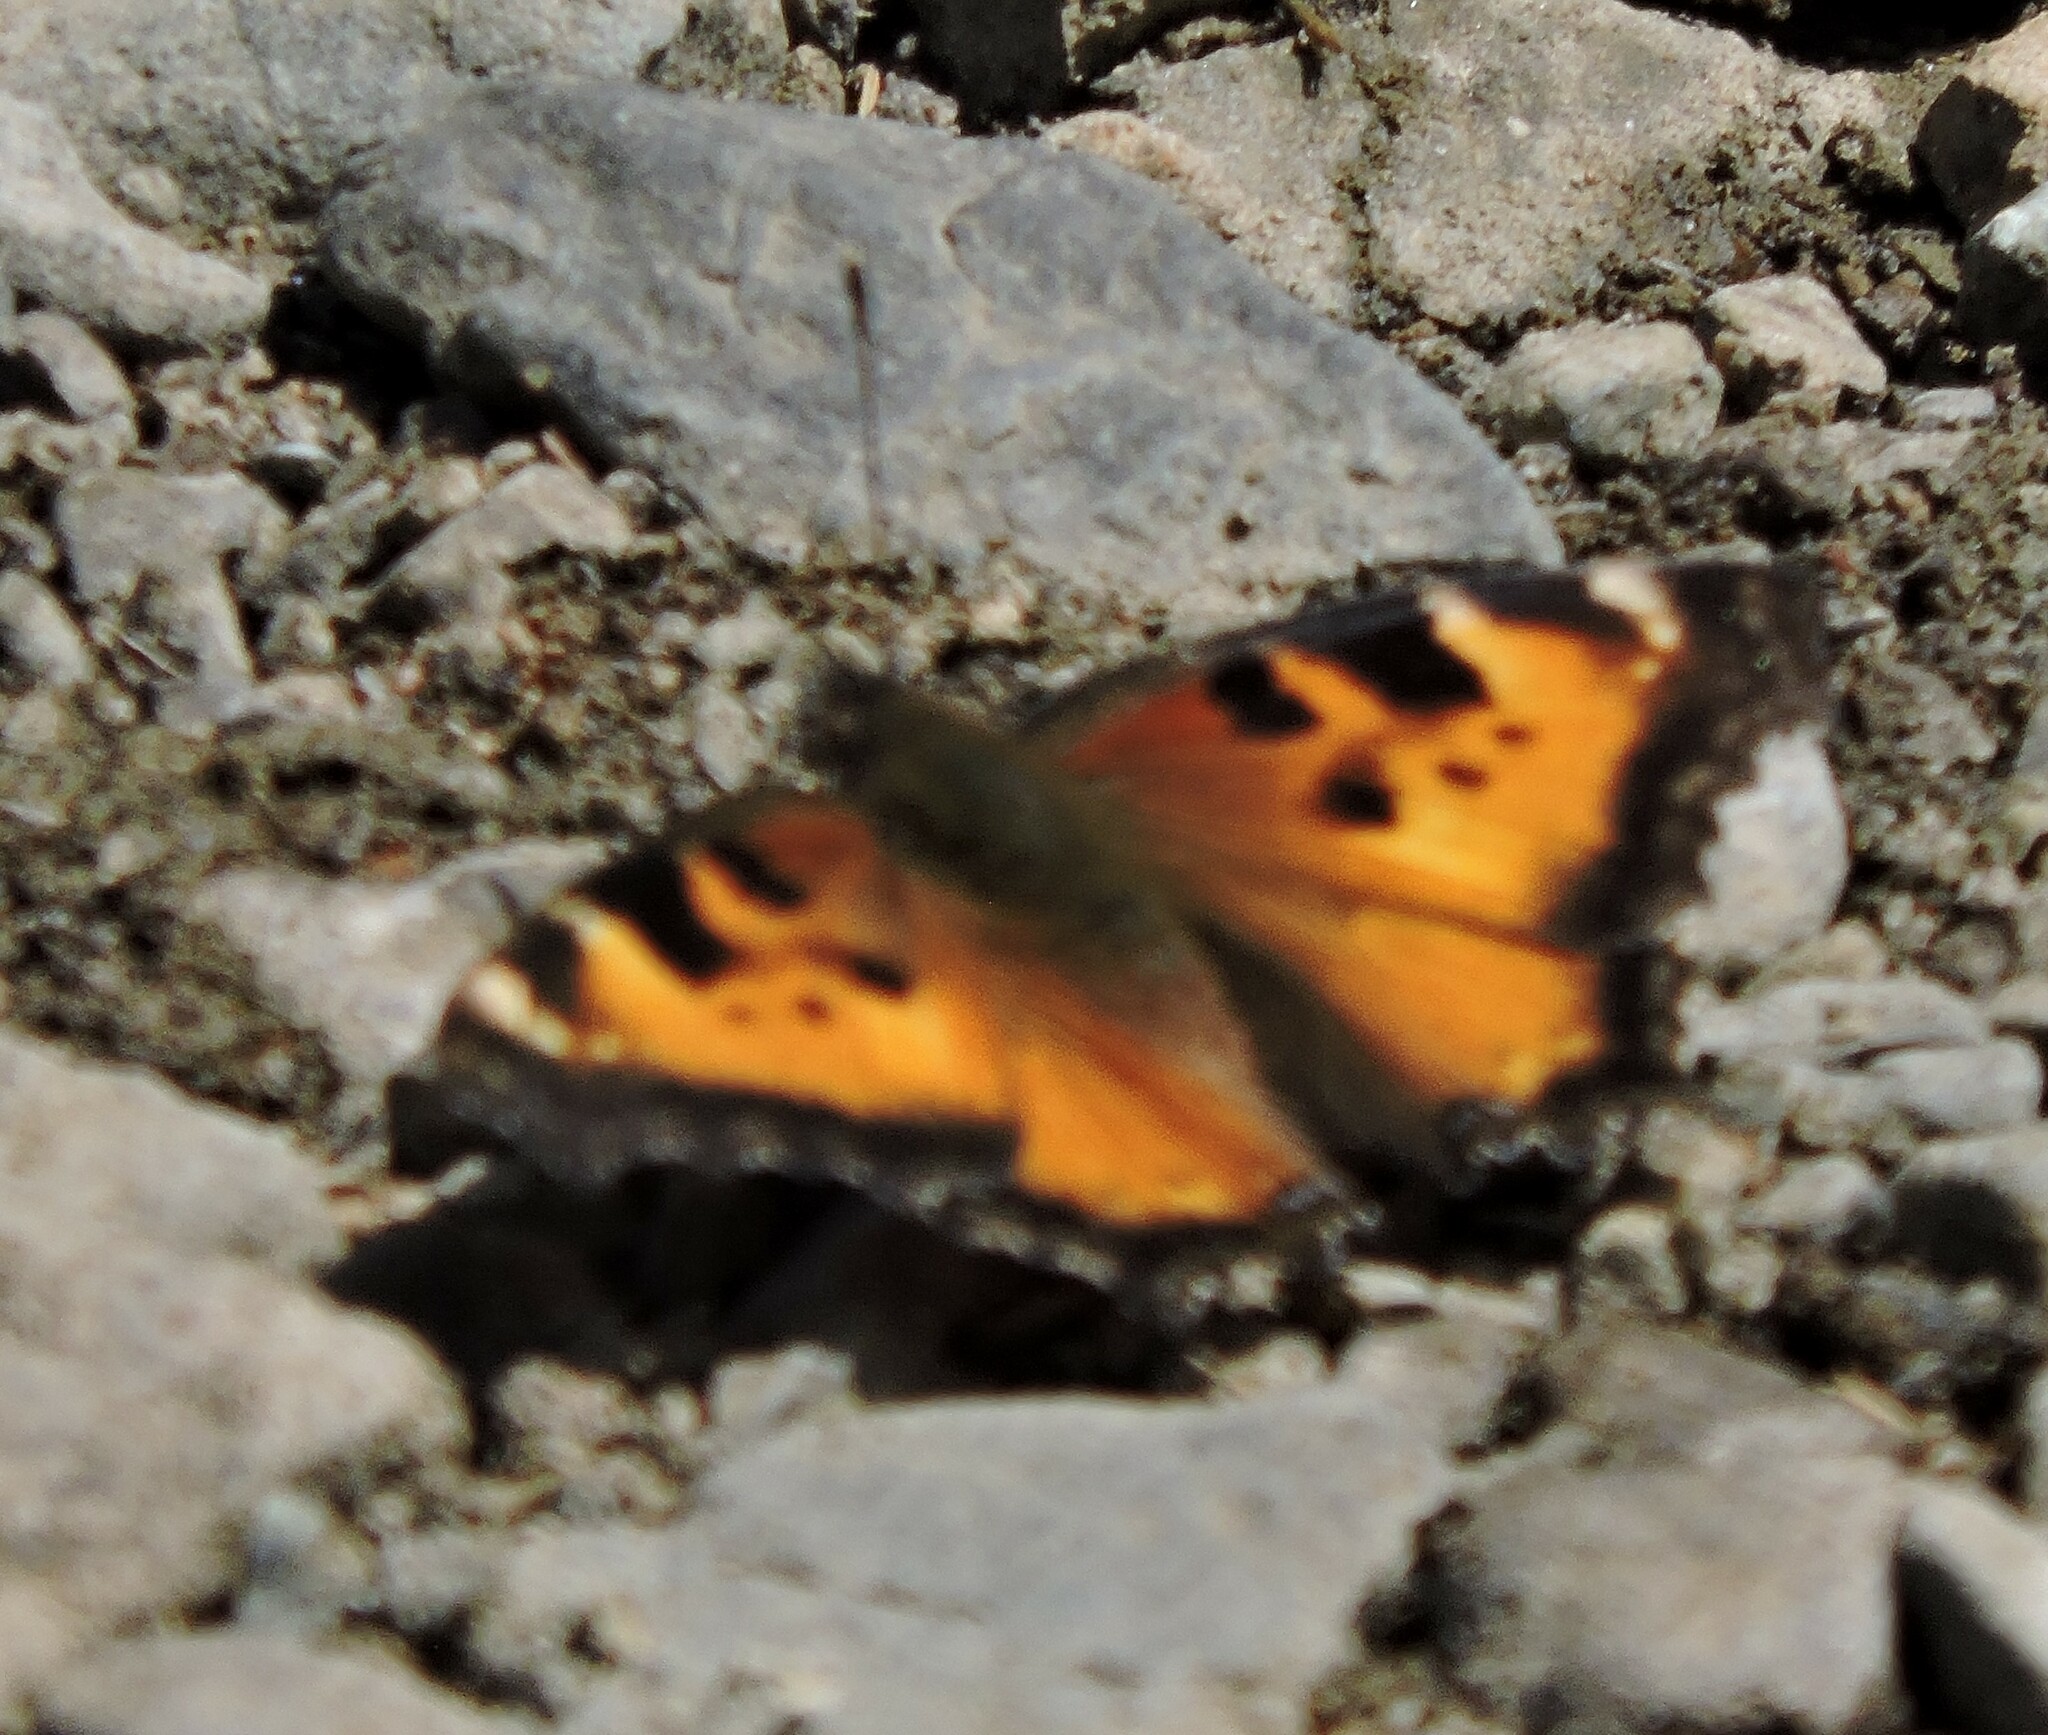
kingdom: Animalia
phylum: Arthropoda
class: Insecta
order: Lepidoptera
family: Nymphalidae
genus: Nymphalis
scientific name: Nymphalis californica
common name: California tortoiseshell
